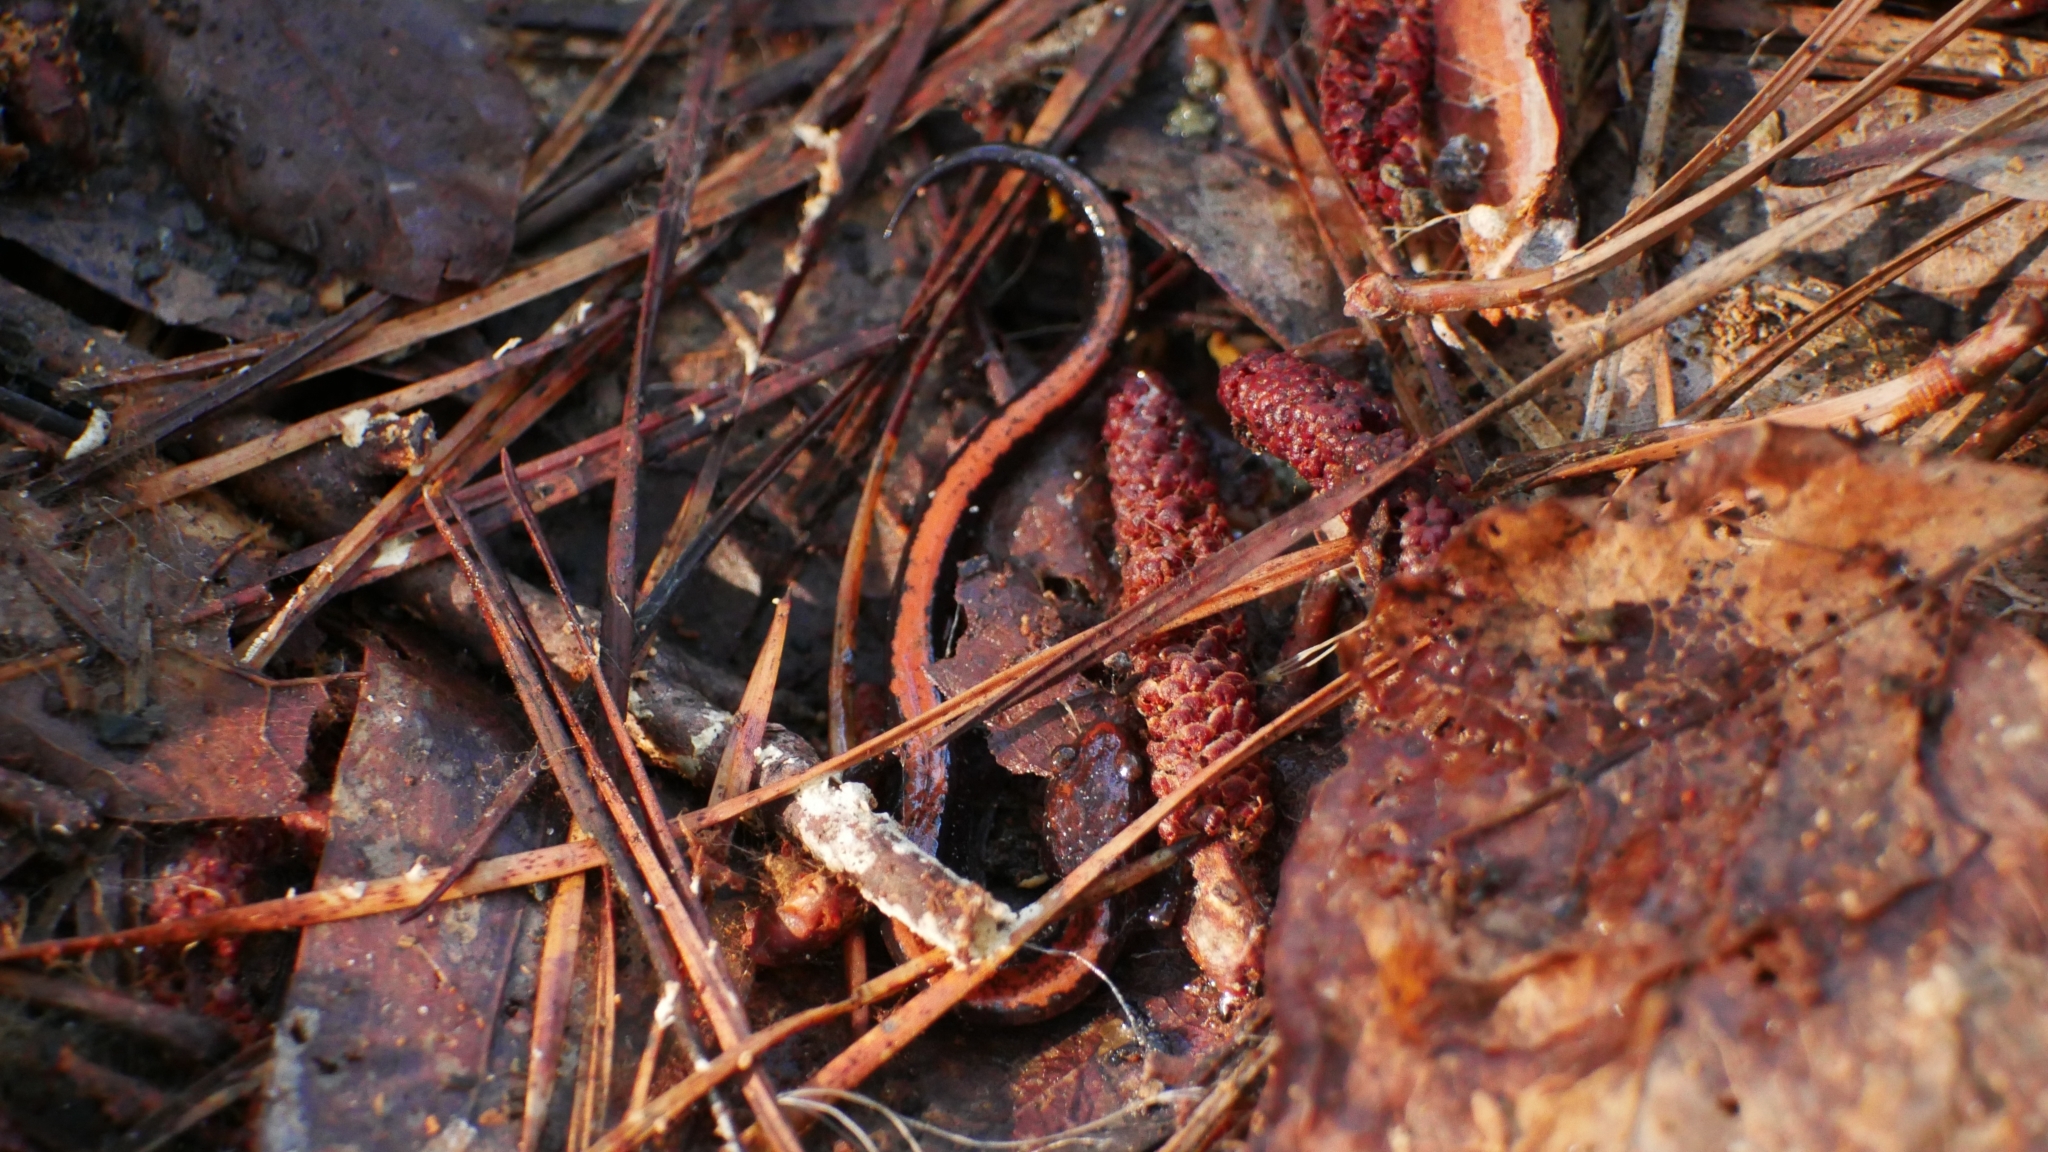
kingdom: Animalia
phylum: Chordata
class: Amphibia
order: Caudata
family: Plethodontidae
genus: Plethodon
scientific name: Plethodon cinereus
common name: Redback salamander
